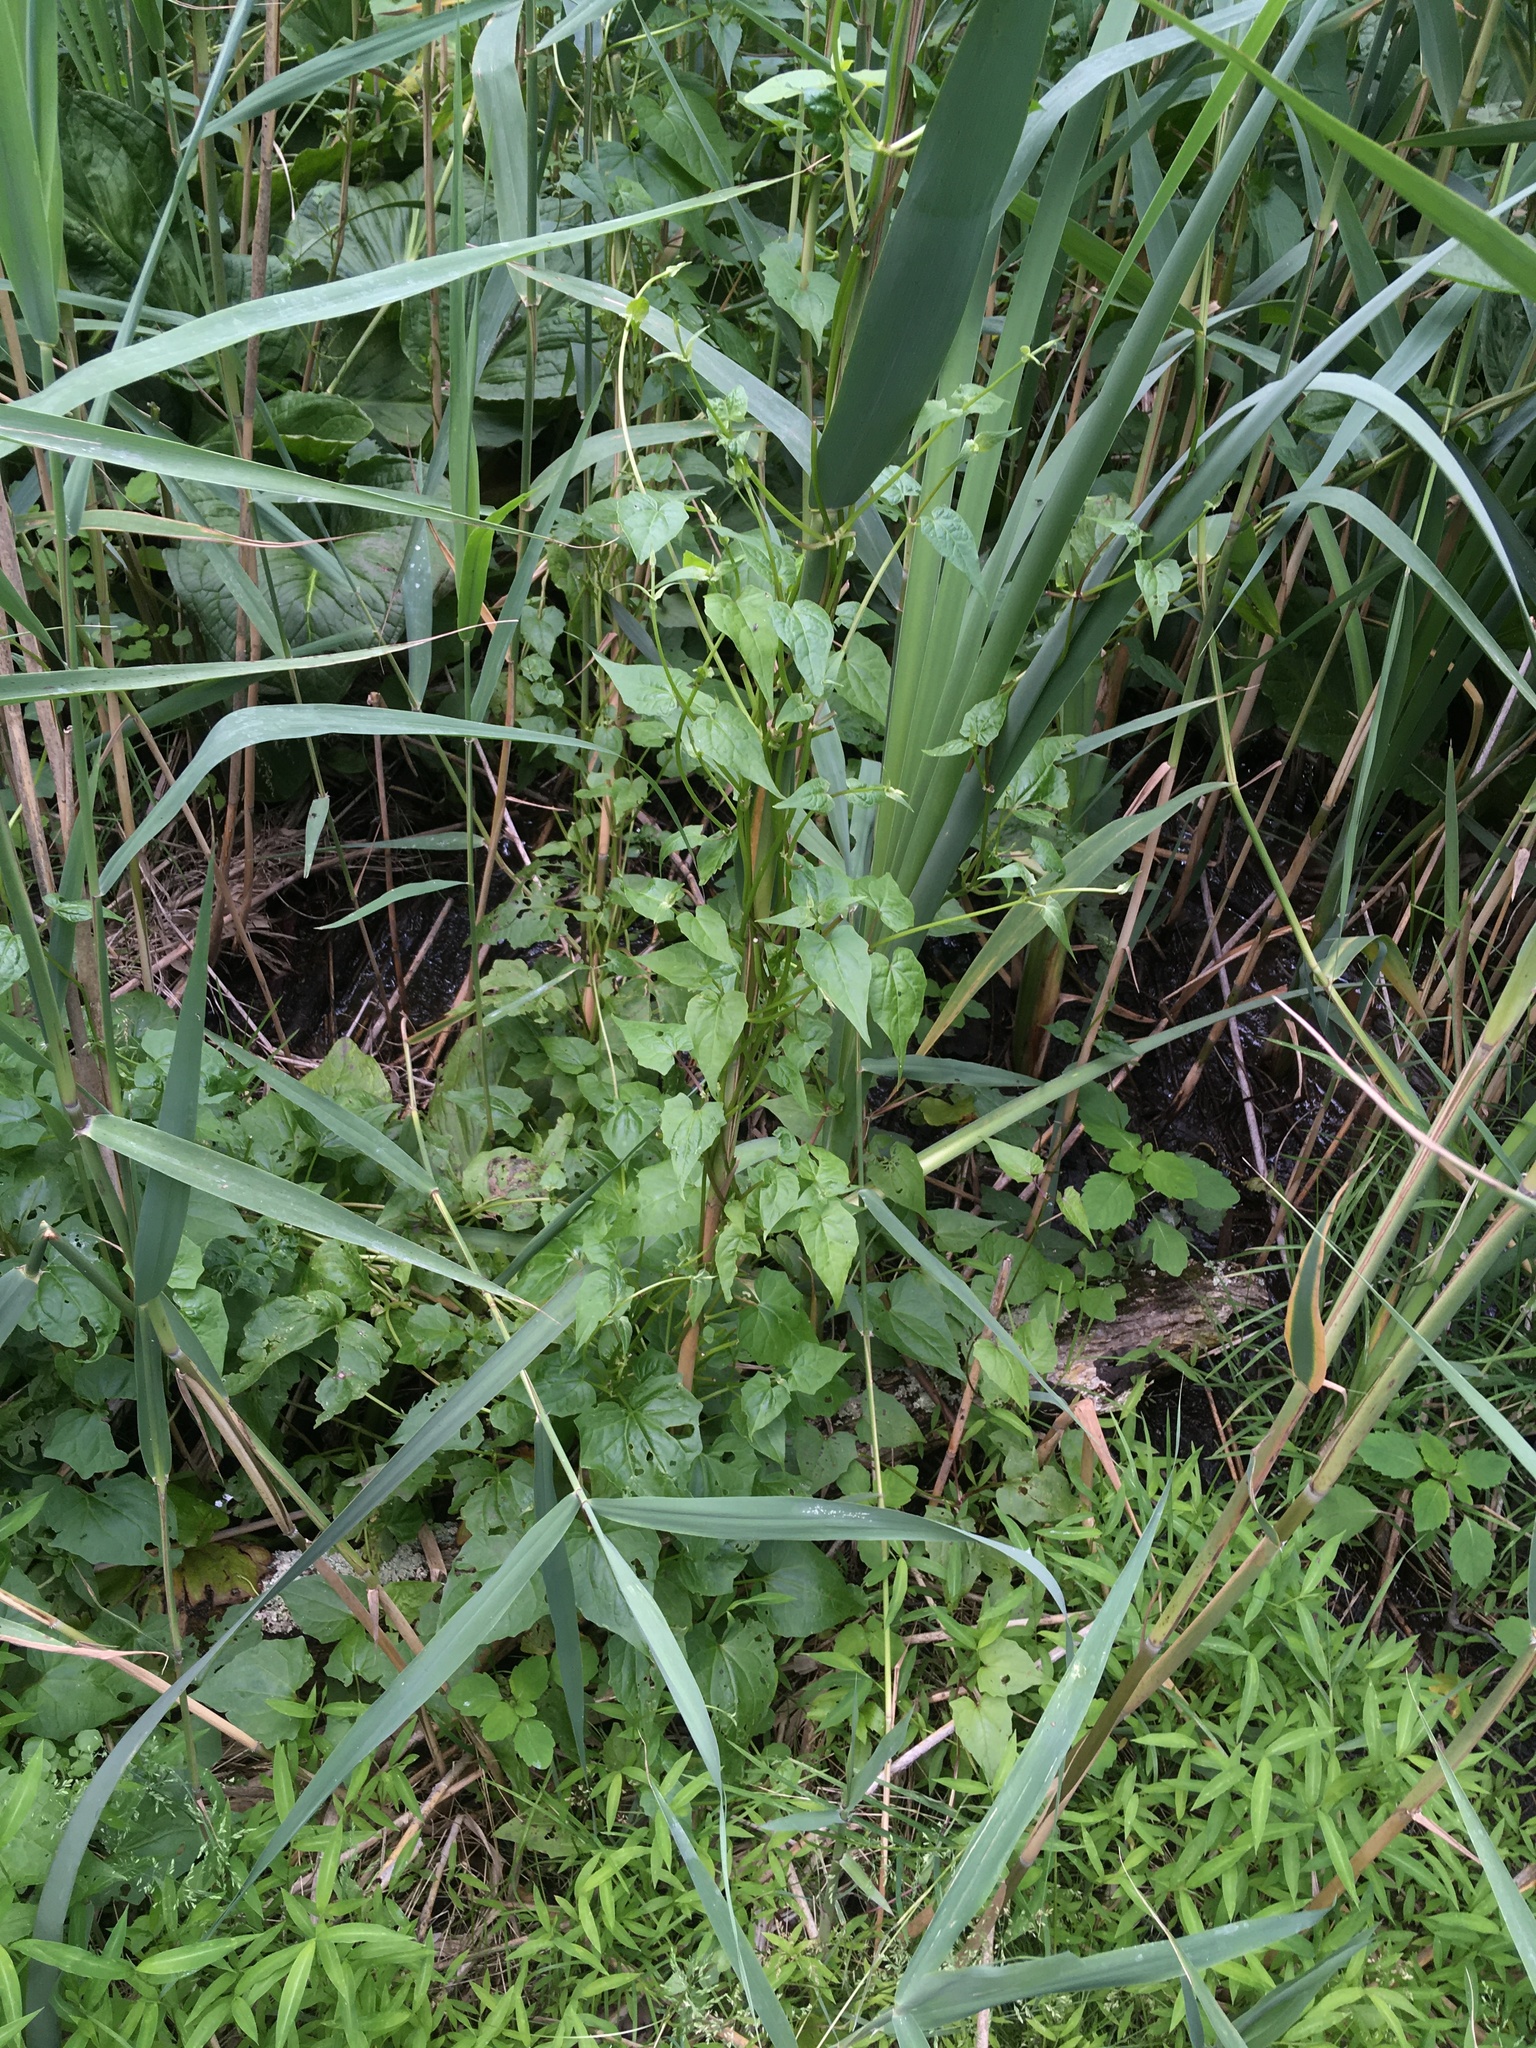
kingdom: Plantae
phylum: Tracheophyta
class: Magnoliopsida
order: Asterales
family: Asteraceae
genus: Mikania
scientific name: Mikania scandens
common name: Climbing hempvine
